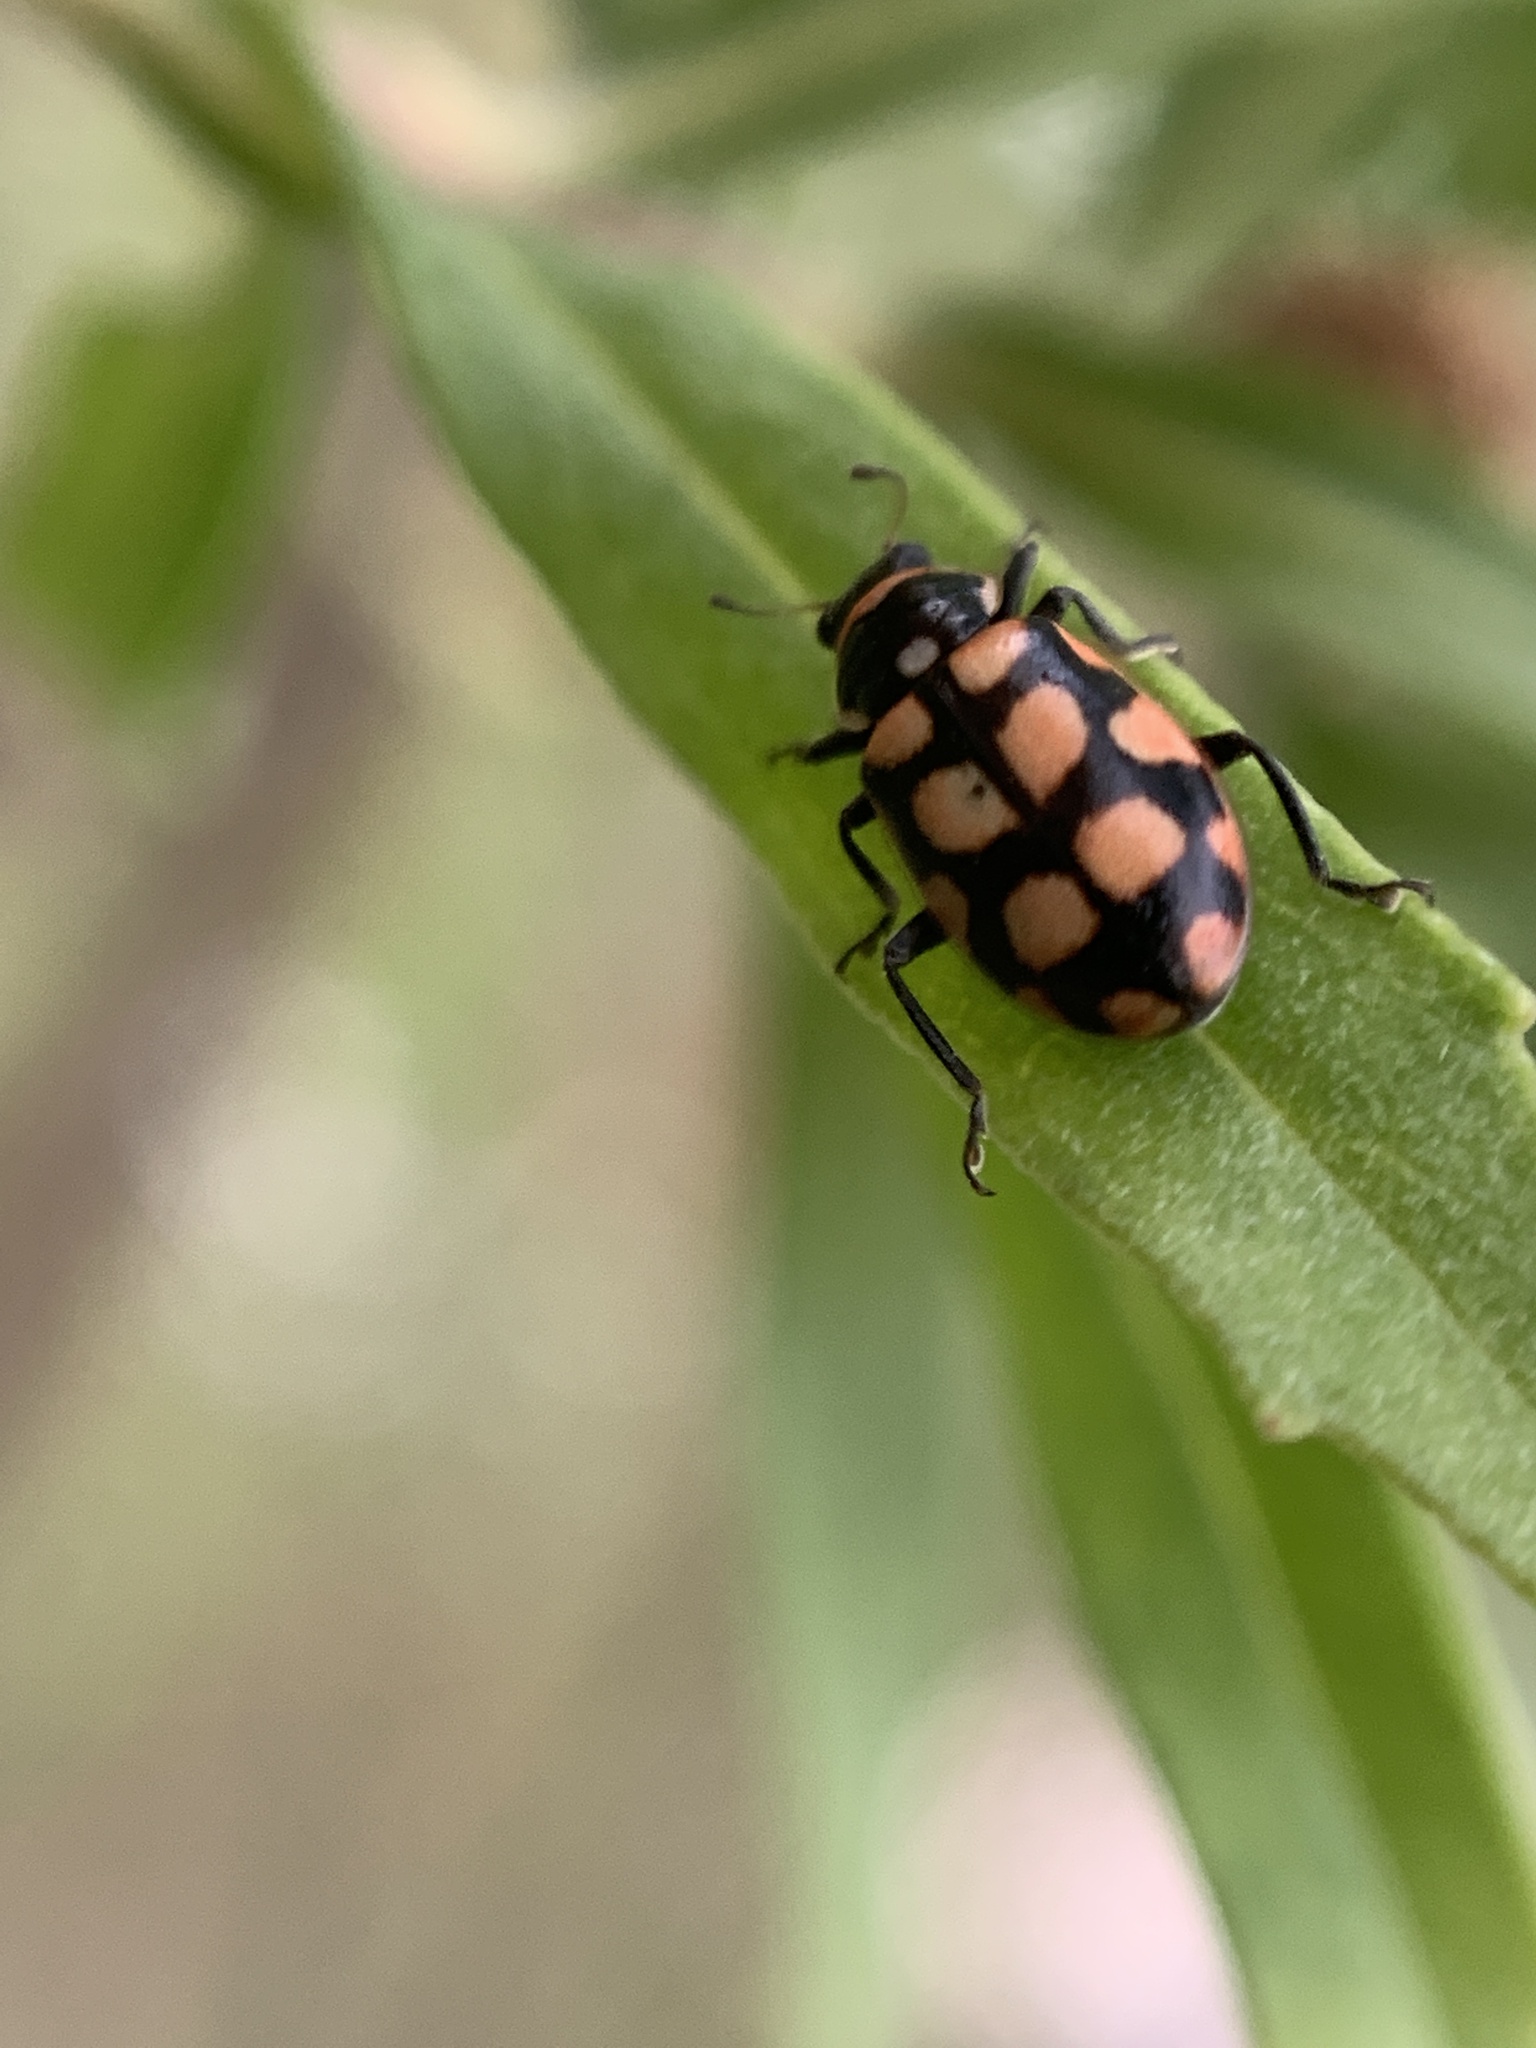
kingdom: Animalia
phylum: Arthropoda
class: Insecta
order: Coleoptera
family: Coccinellidae
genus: Eriopis
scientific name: Eriopis
